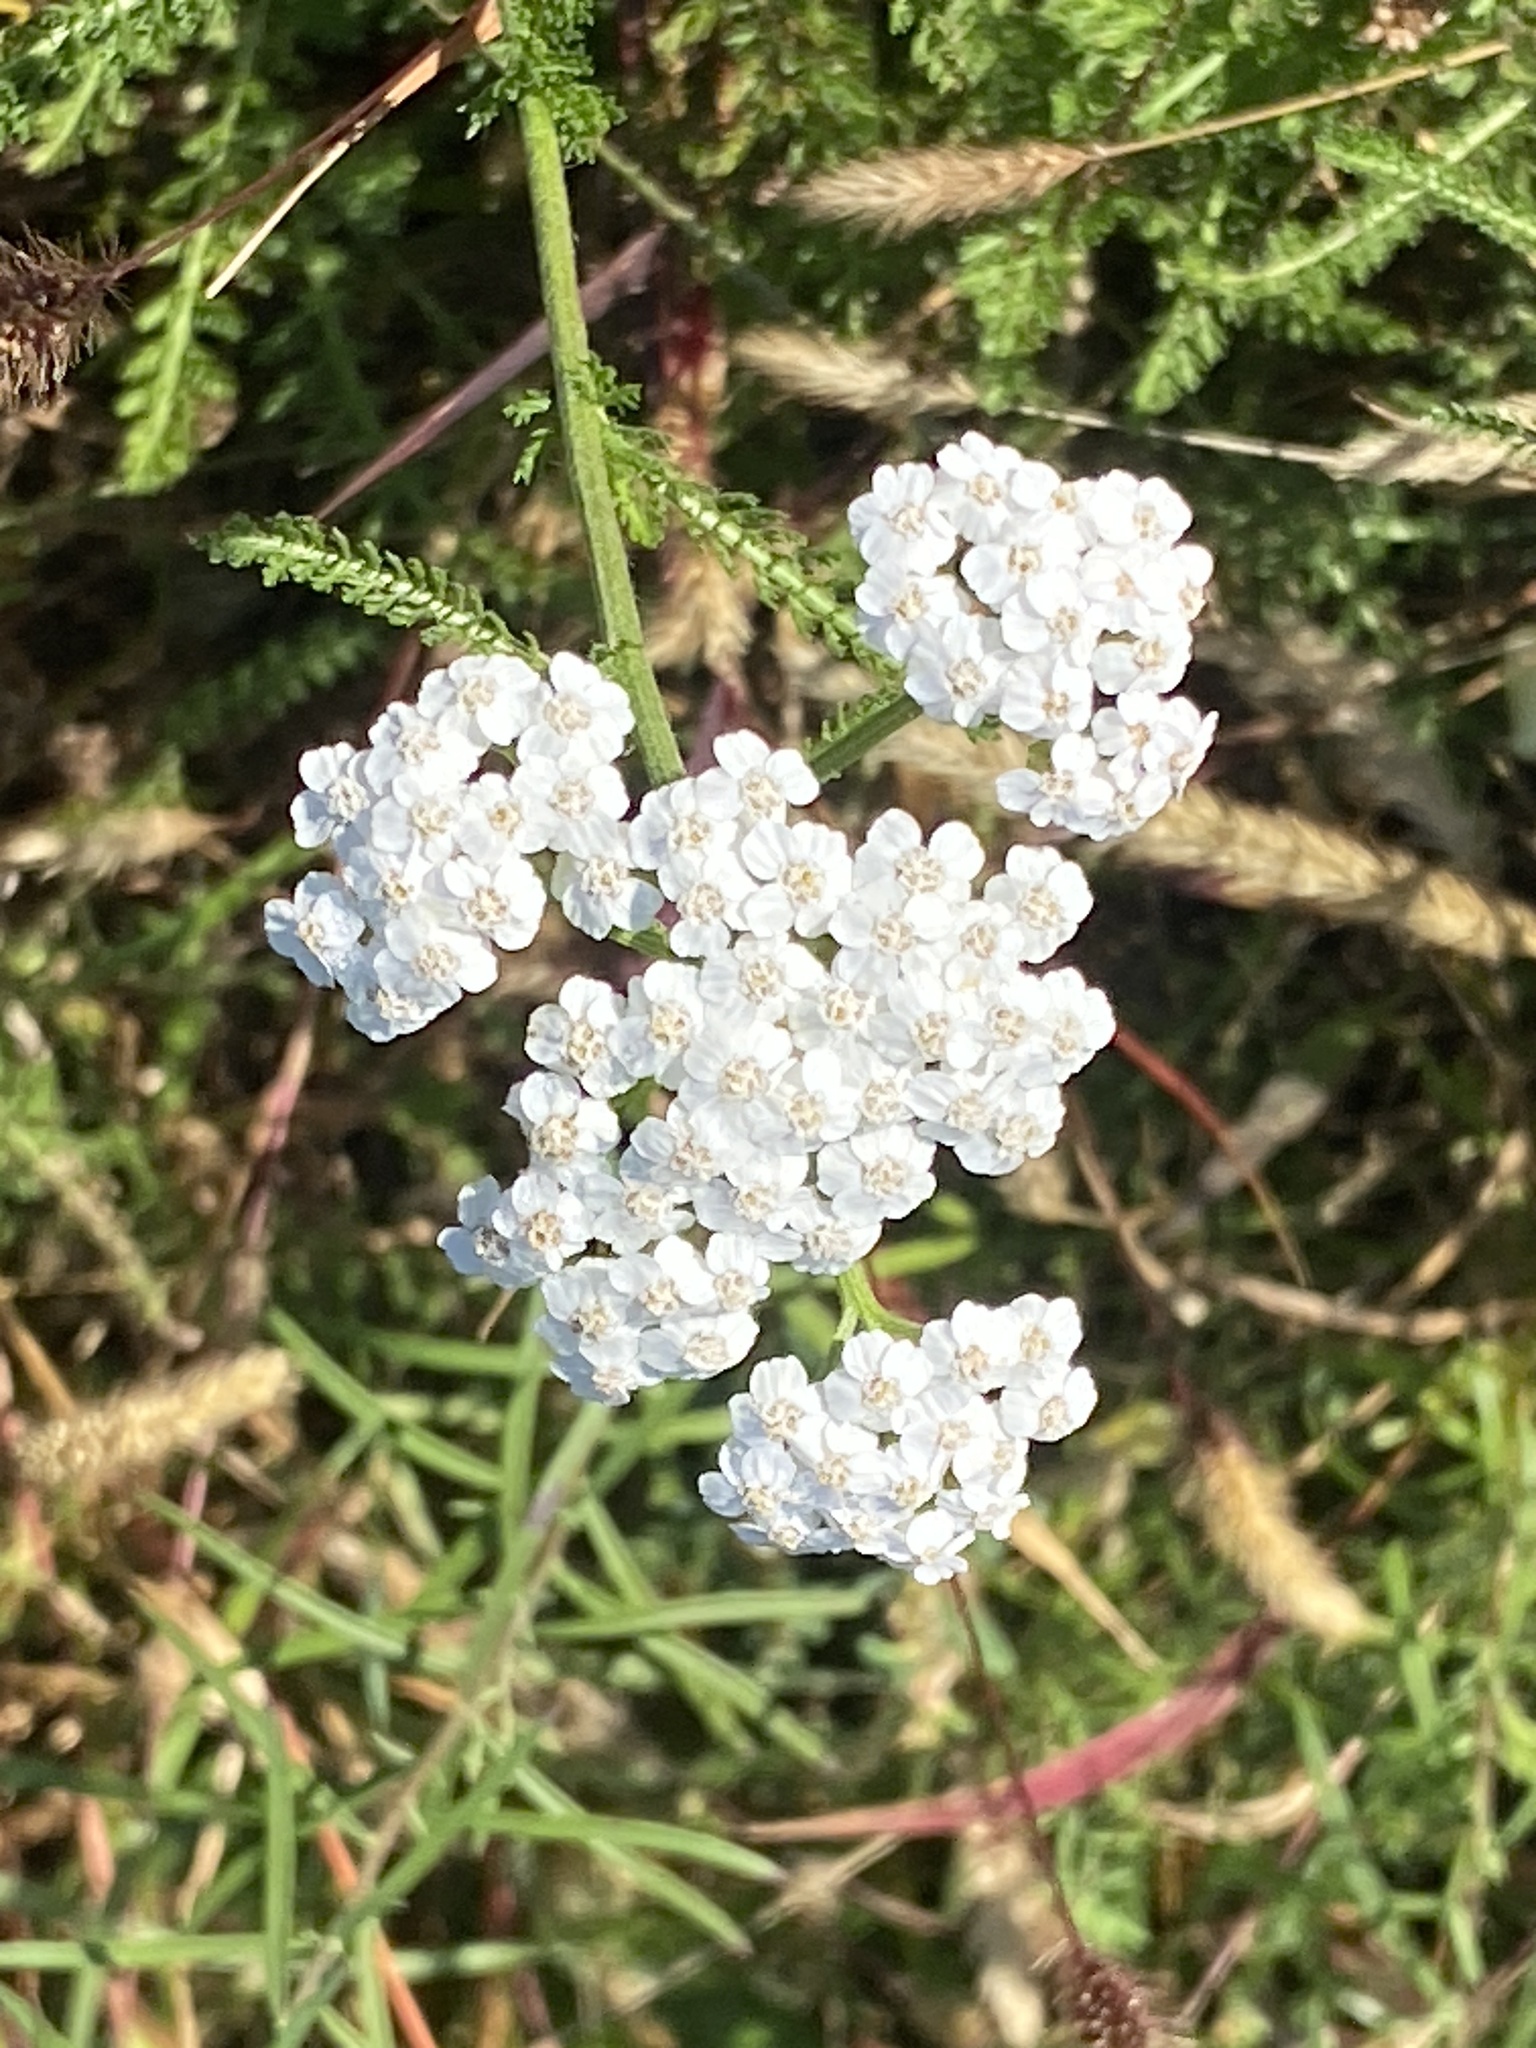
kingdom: Plantae
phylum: Tracheophyta
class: Magnoliopsida
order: Asterales
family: Asteraceae
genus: Achillea
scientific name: Achillea millefolium
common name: Yarrow
